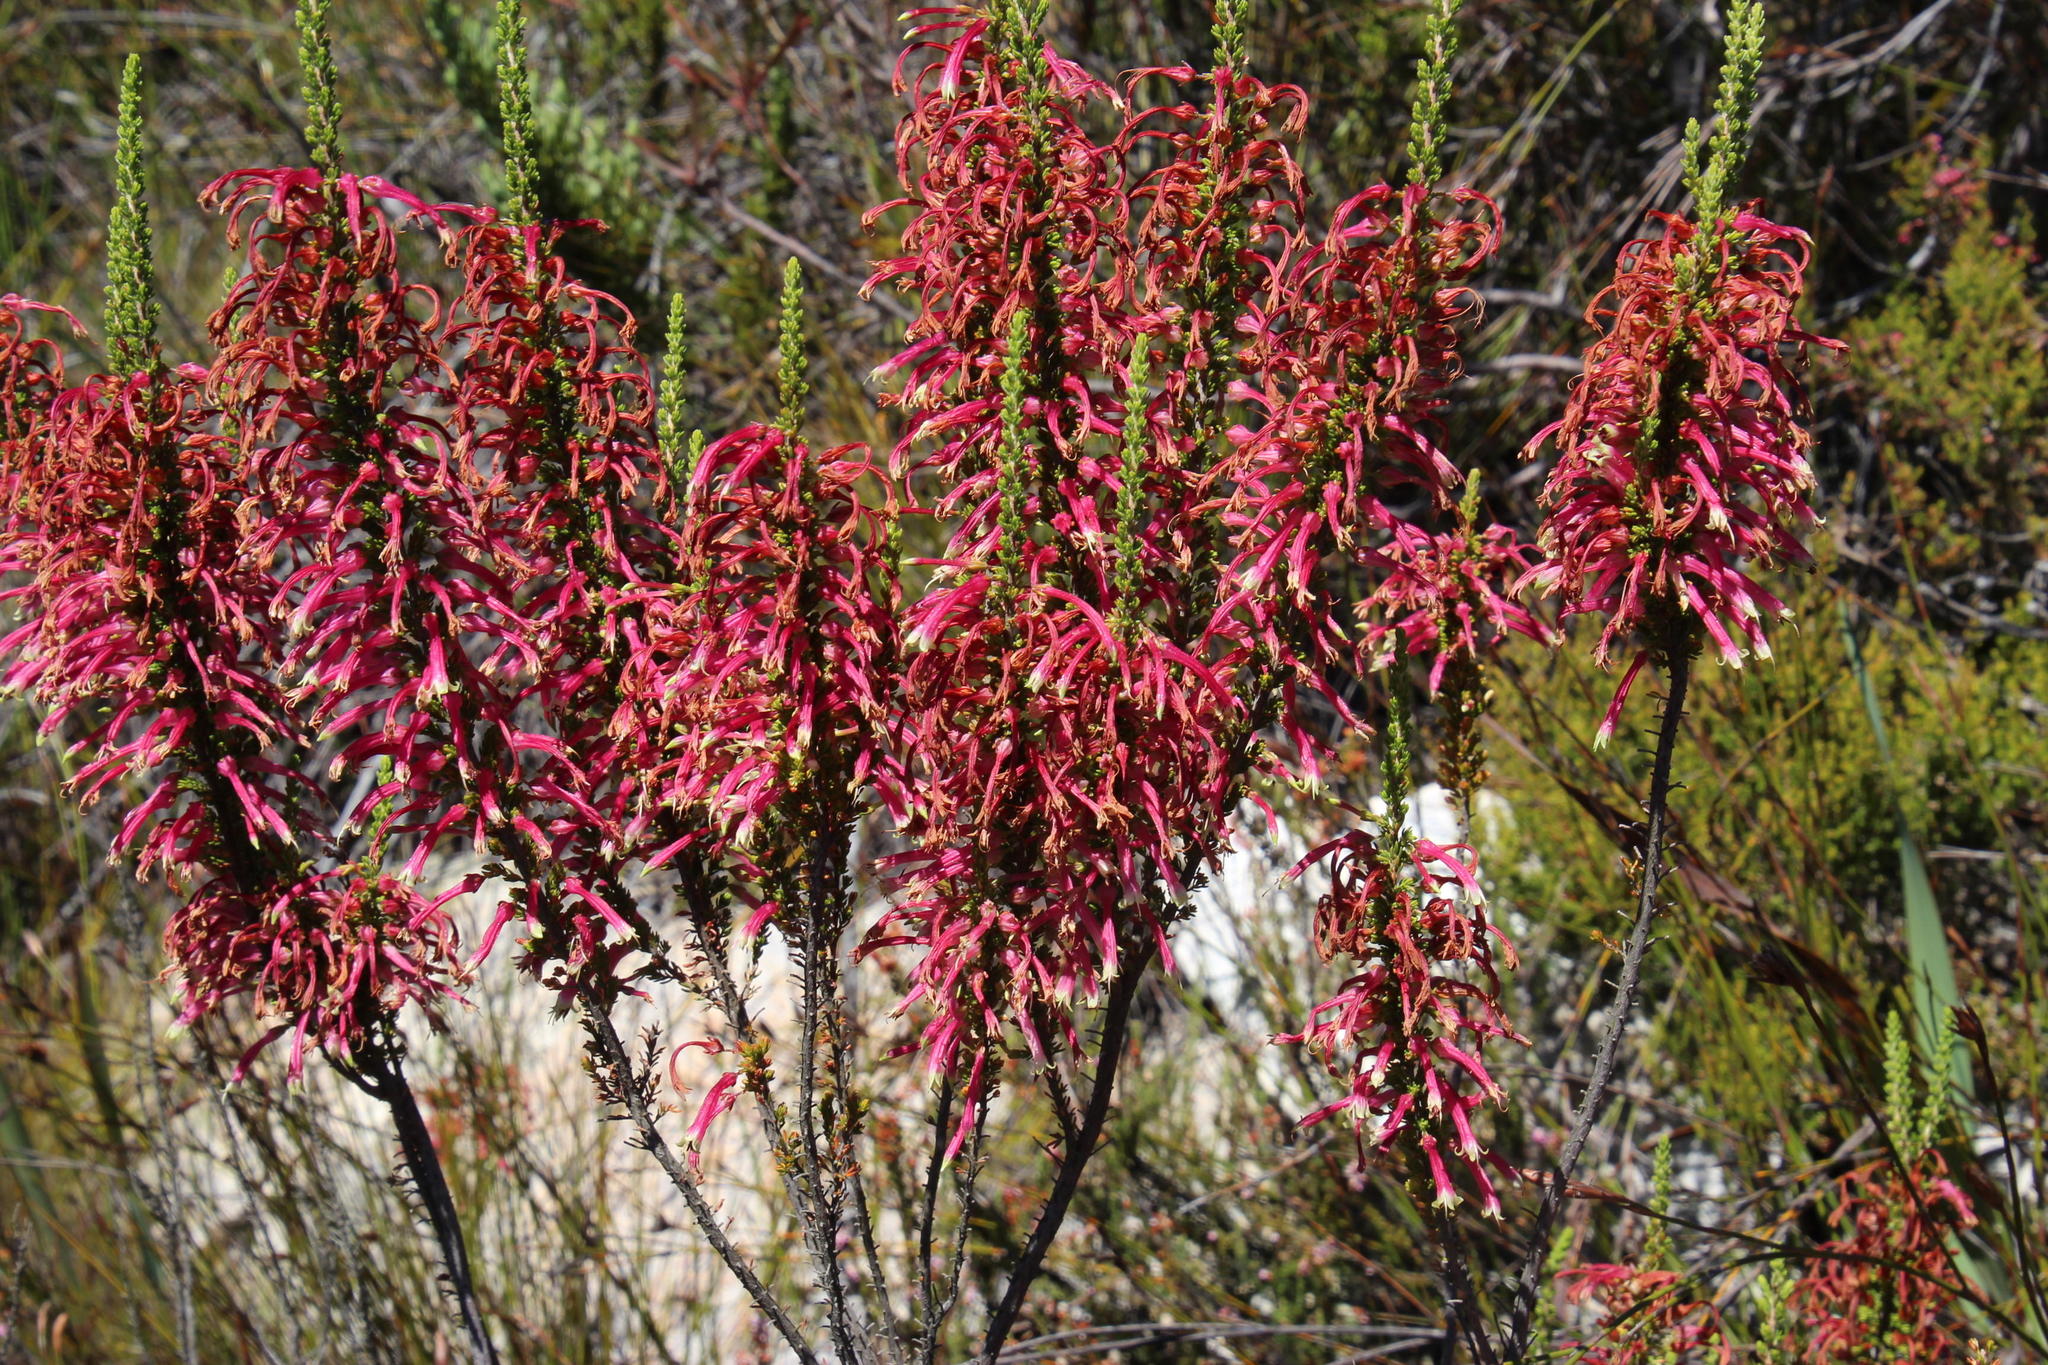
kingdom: Plantae
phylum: Tracheophyta
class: Magnoliopsida
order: Ericales
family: Ericaceae
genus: Erica
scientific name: Erica densifolia
